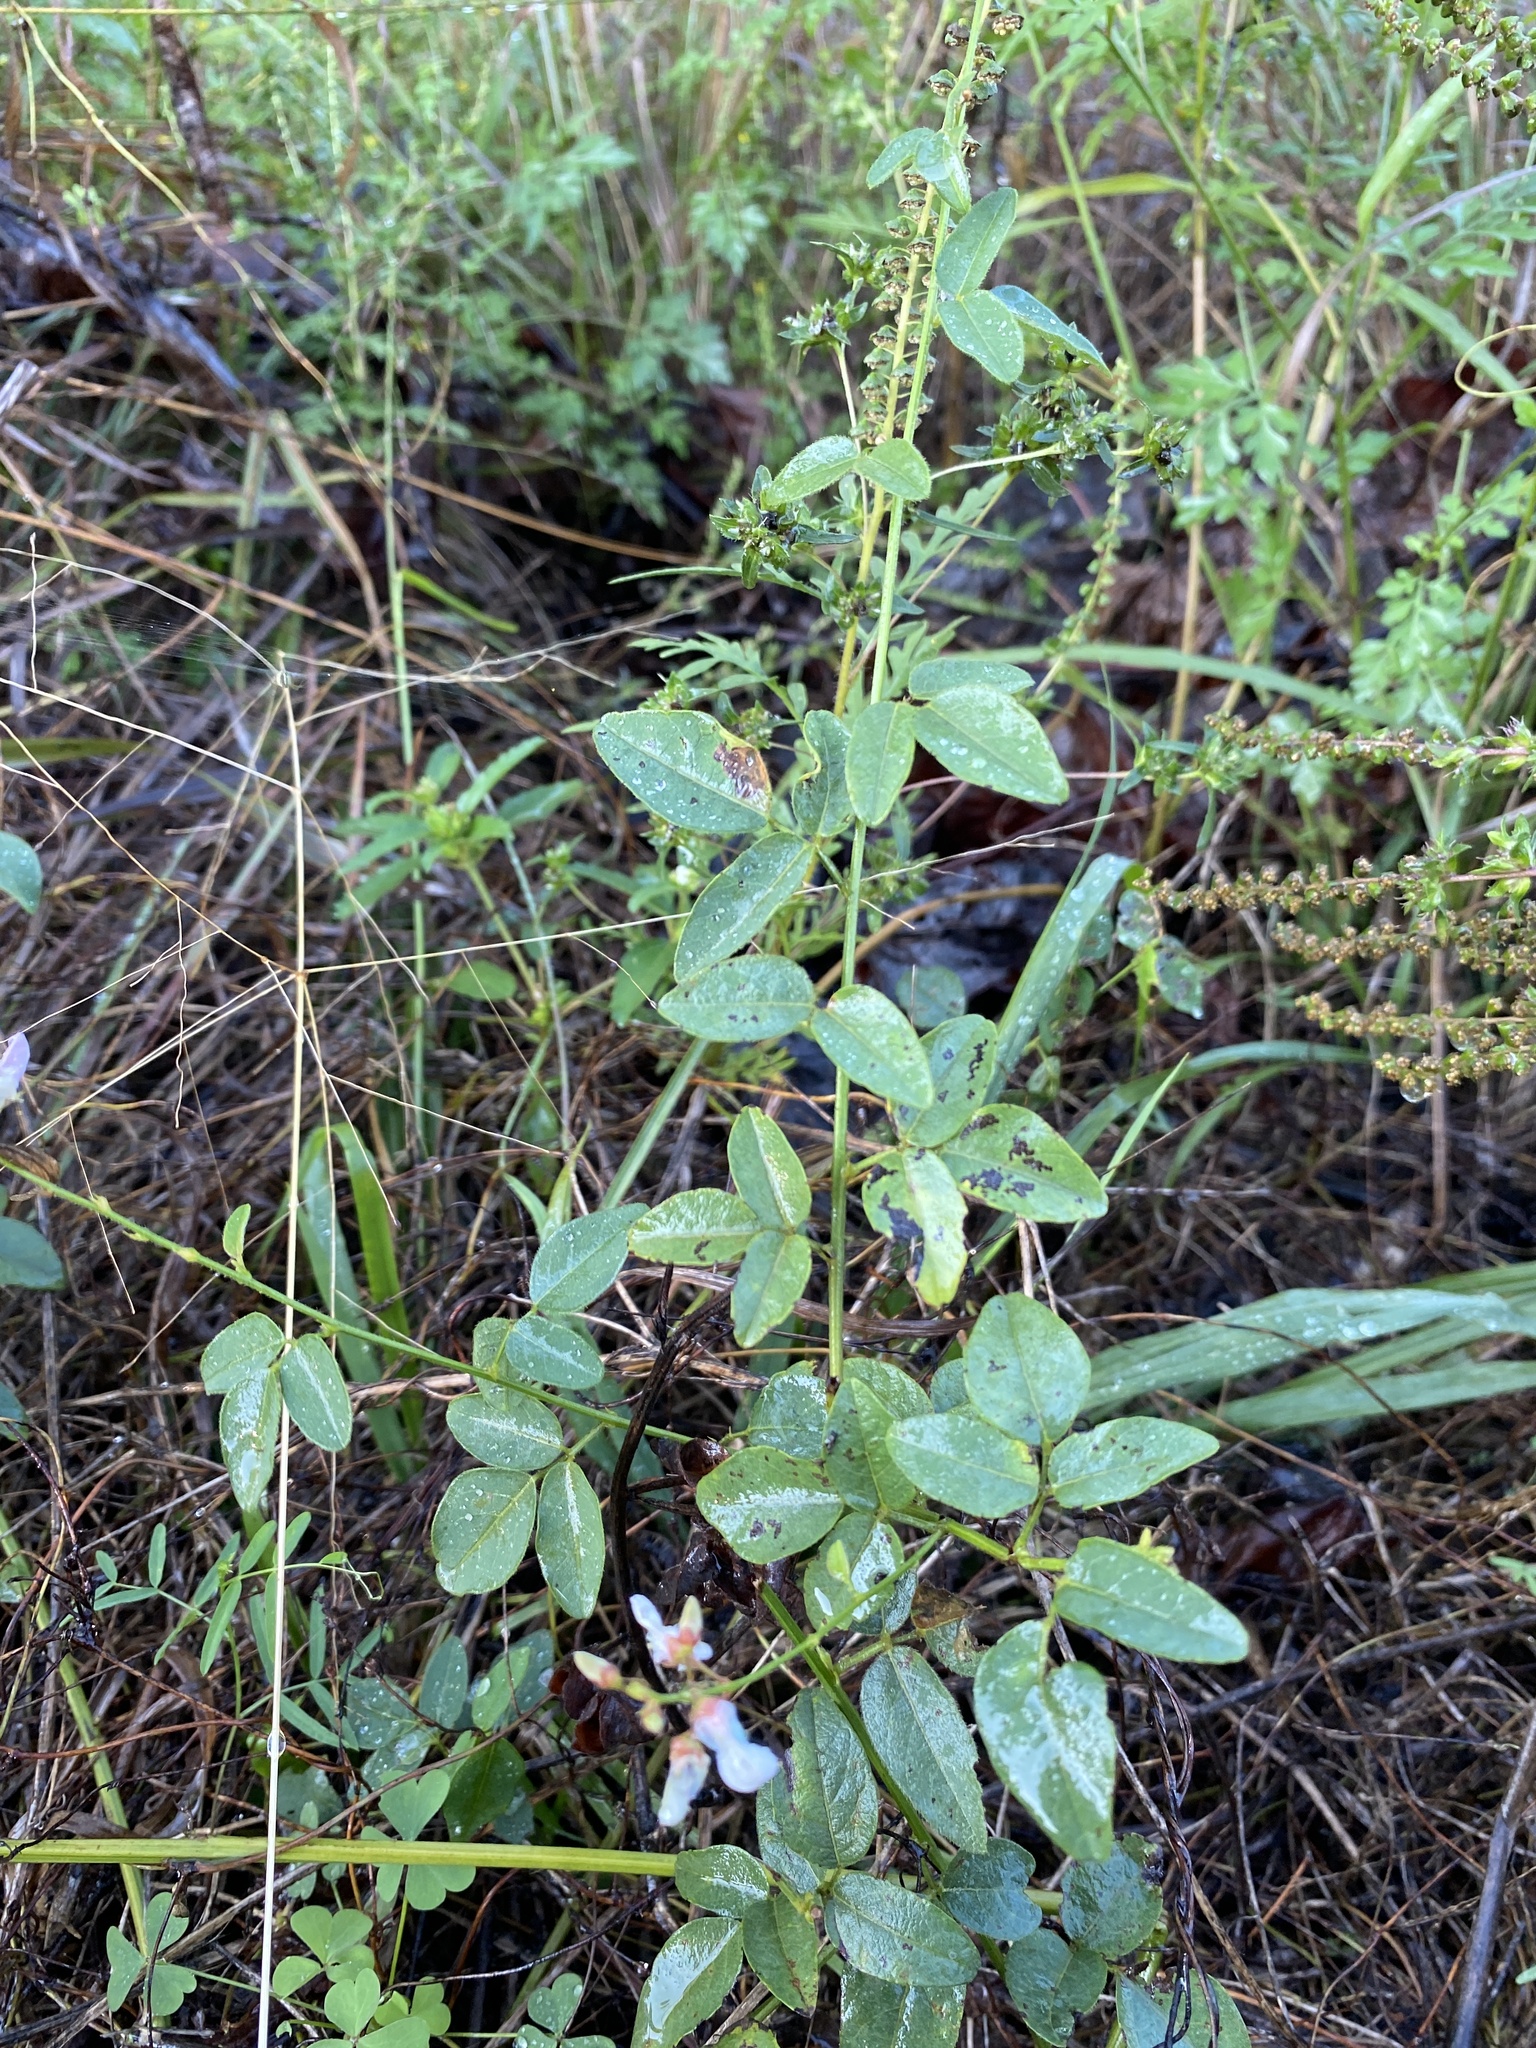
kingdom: Plantae
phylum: Tracheophyta
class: Magnoliopsida
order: Fabales
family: Fabaceae
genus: Desmodium
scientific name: Desmodium marilandicum
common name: Maryland tick-trefoil
